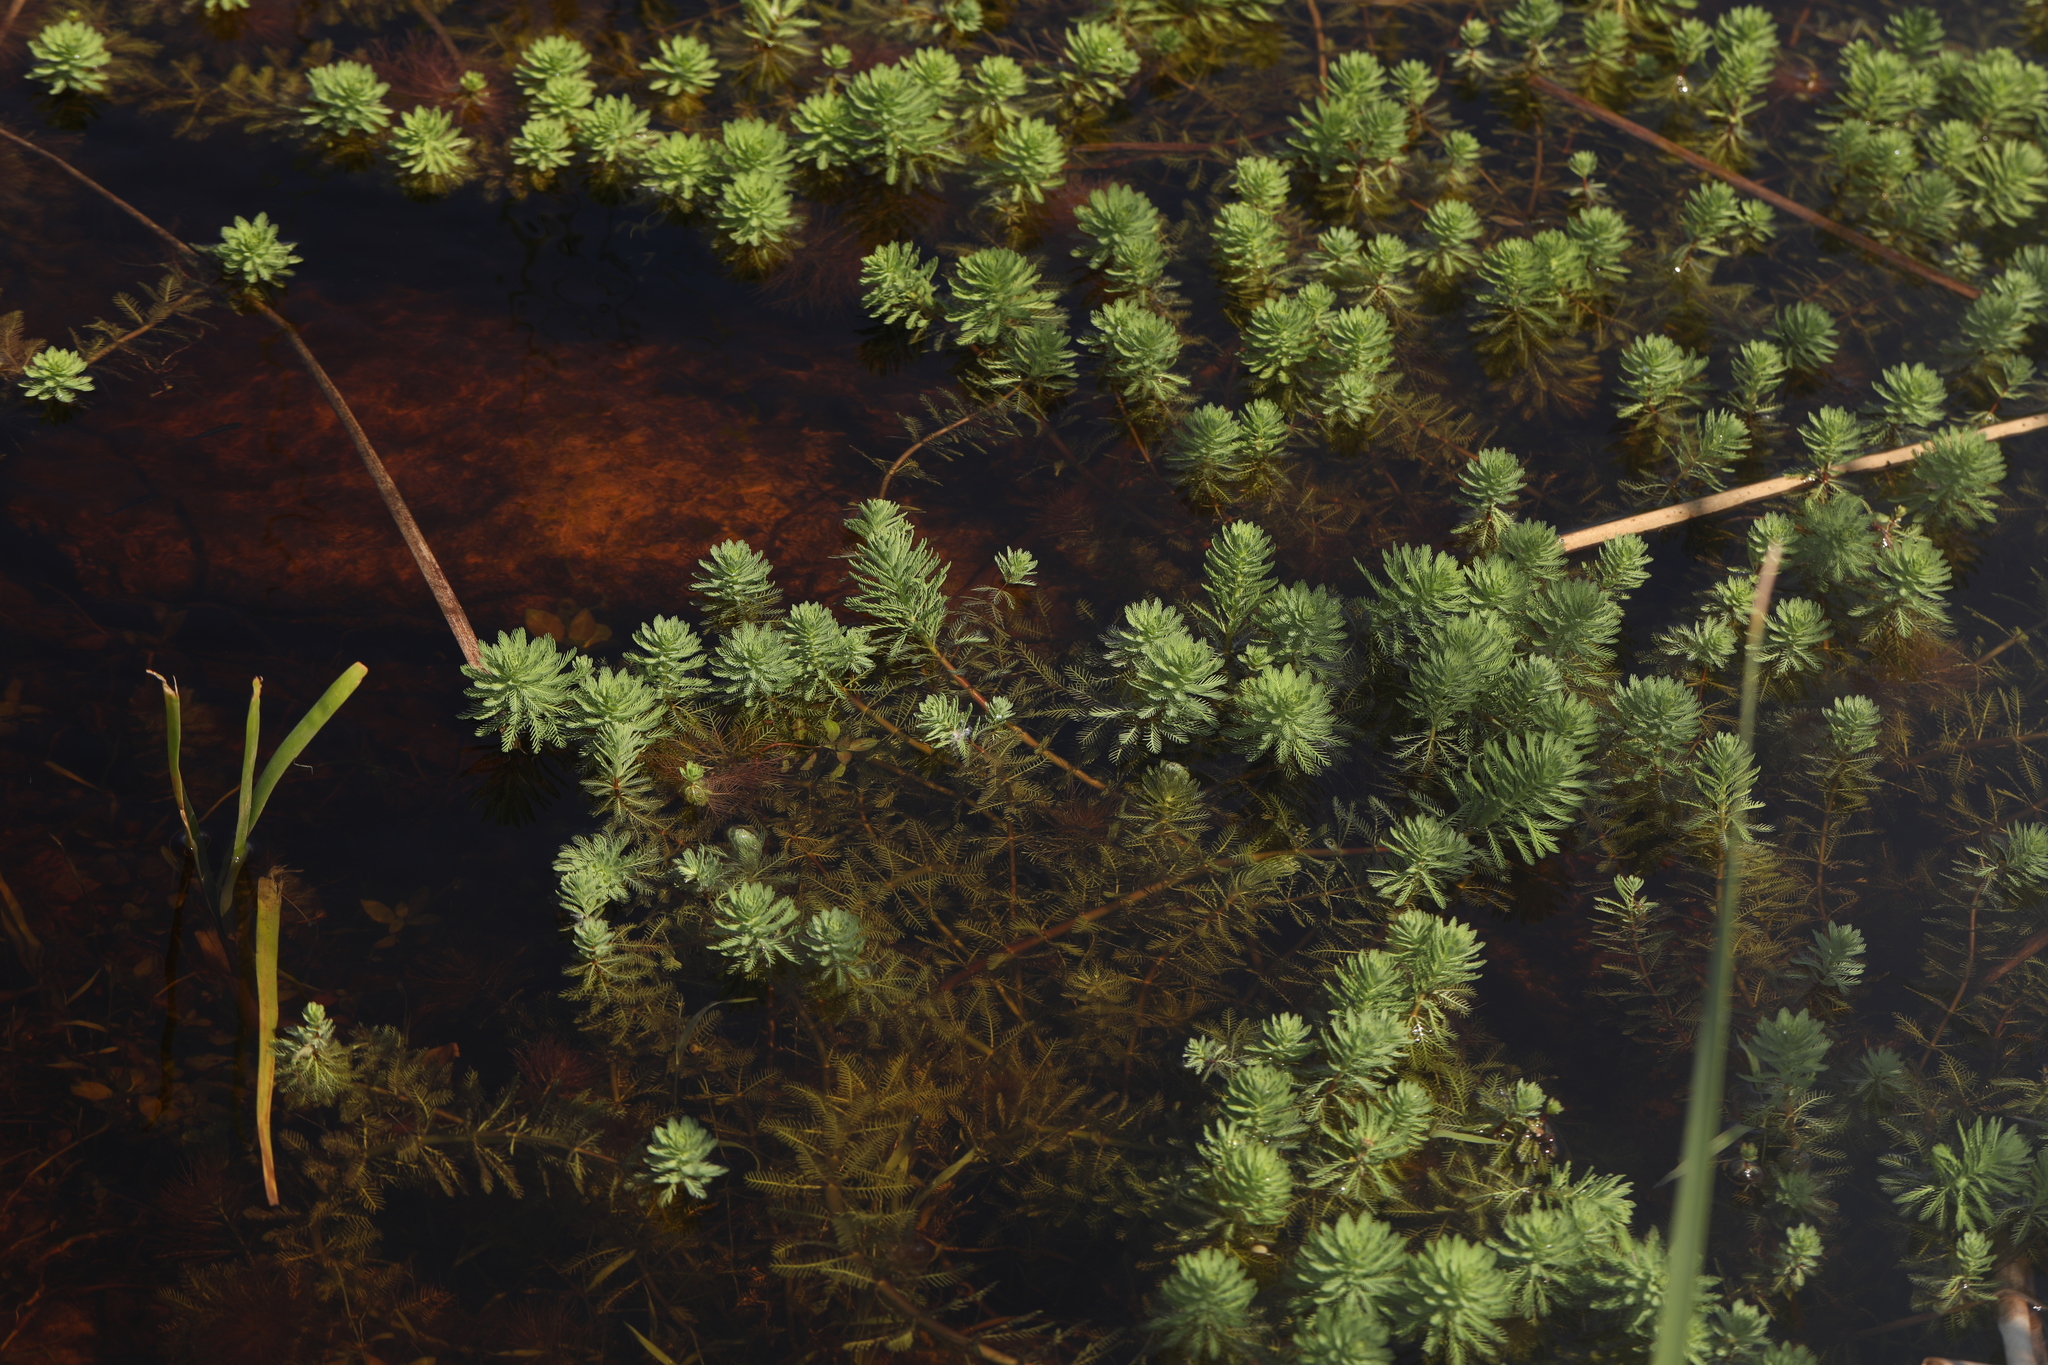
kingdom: Plantae
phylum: Tracheophyta
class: Magnoliopsida
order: Saxifragales
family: Haloragaceae
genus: Myriophyllum
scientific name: Myriophyllum aquaticum
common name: Parrot's feather
